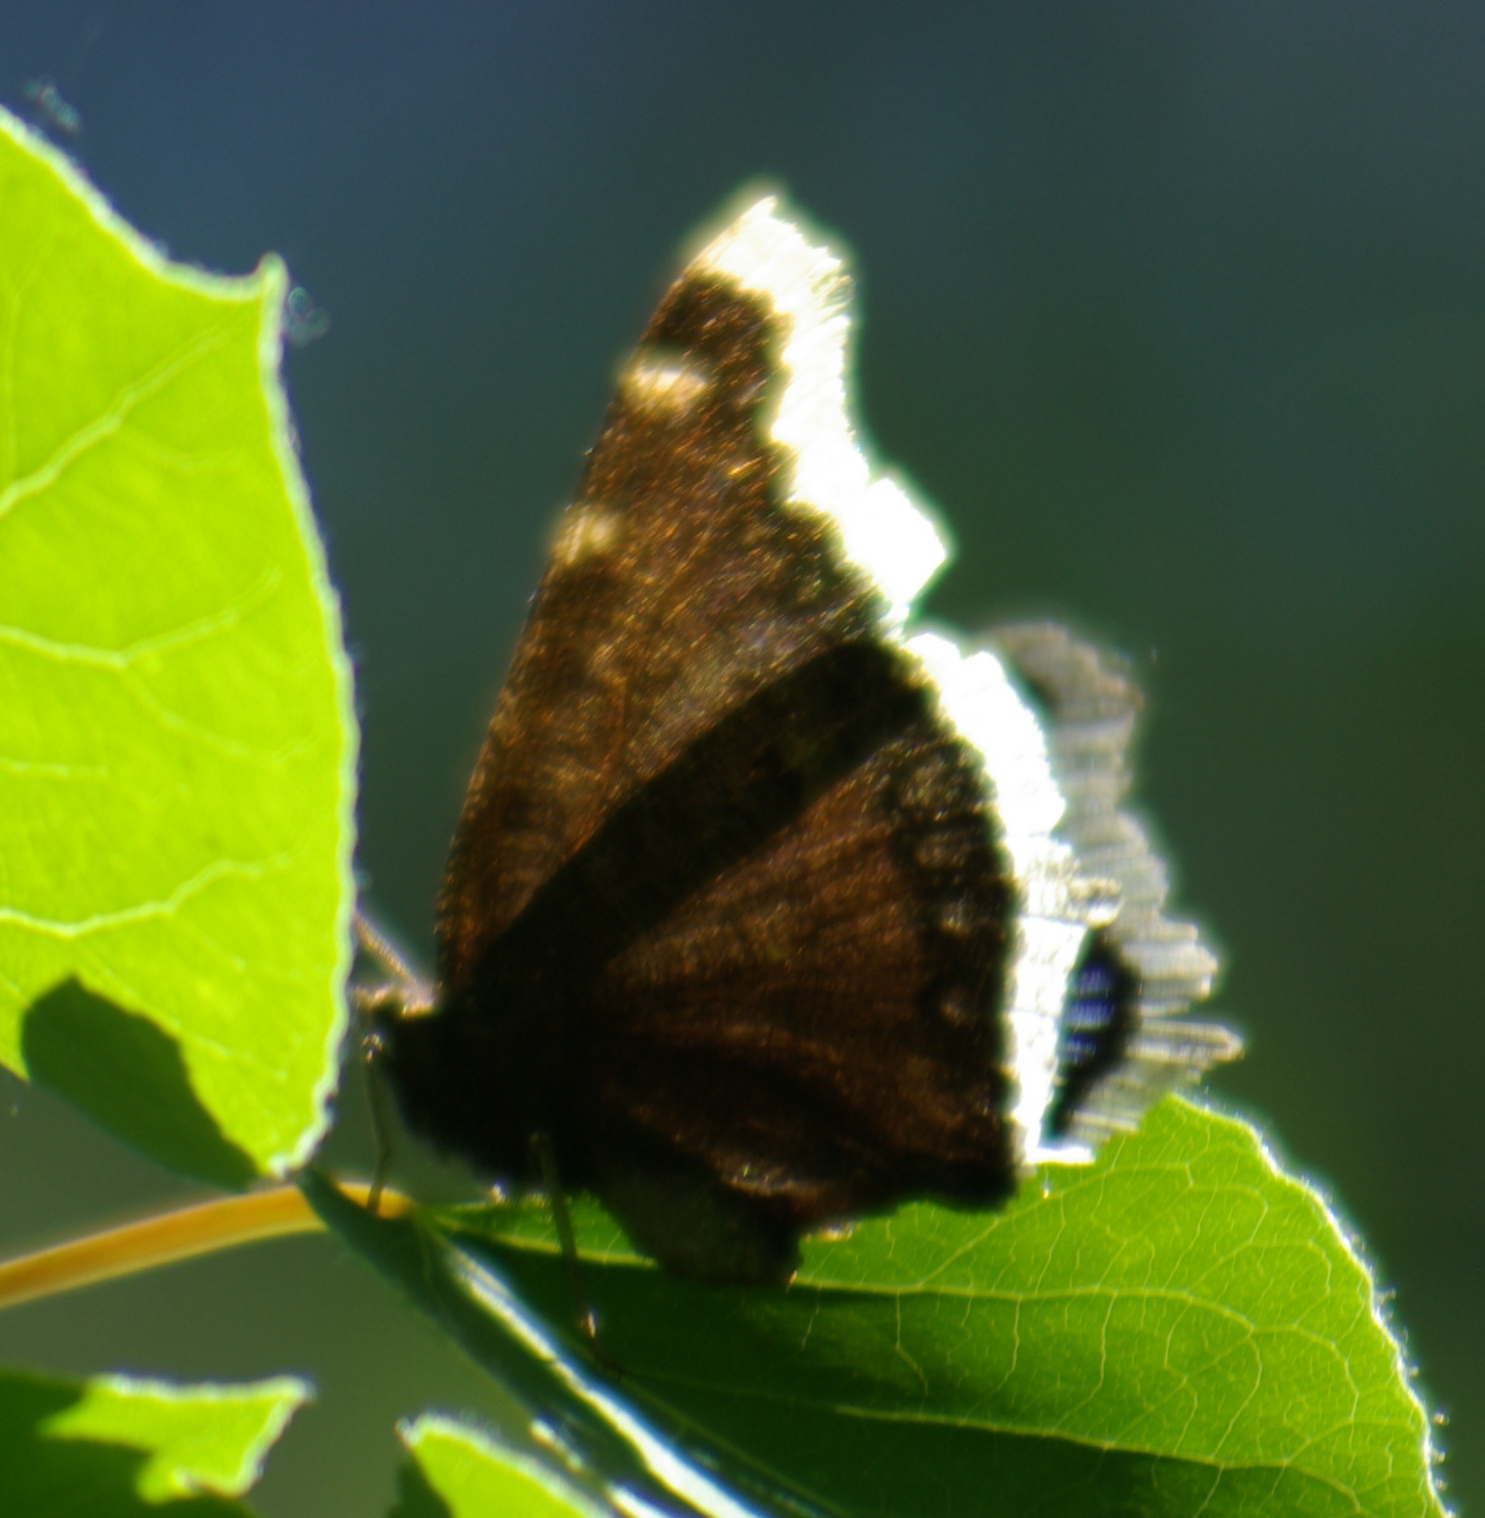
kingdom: Animalia
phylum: Arthropoda
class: Insecta
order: Lepidoptera
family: Nymphalidae
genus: Nymphalis
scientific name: Nymphalis antiopa
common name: Camberwell beauty
